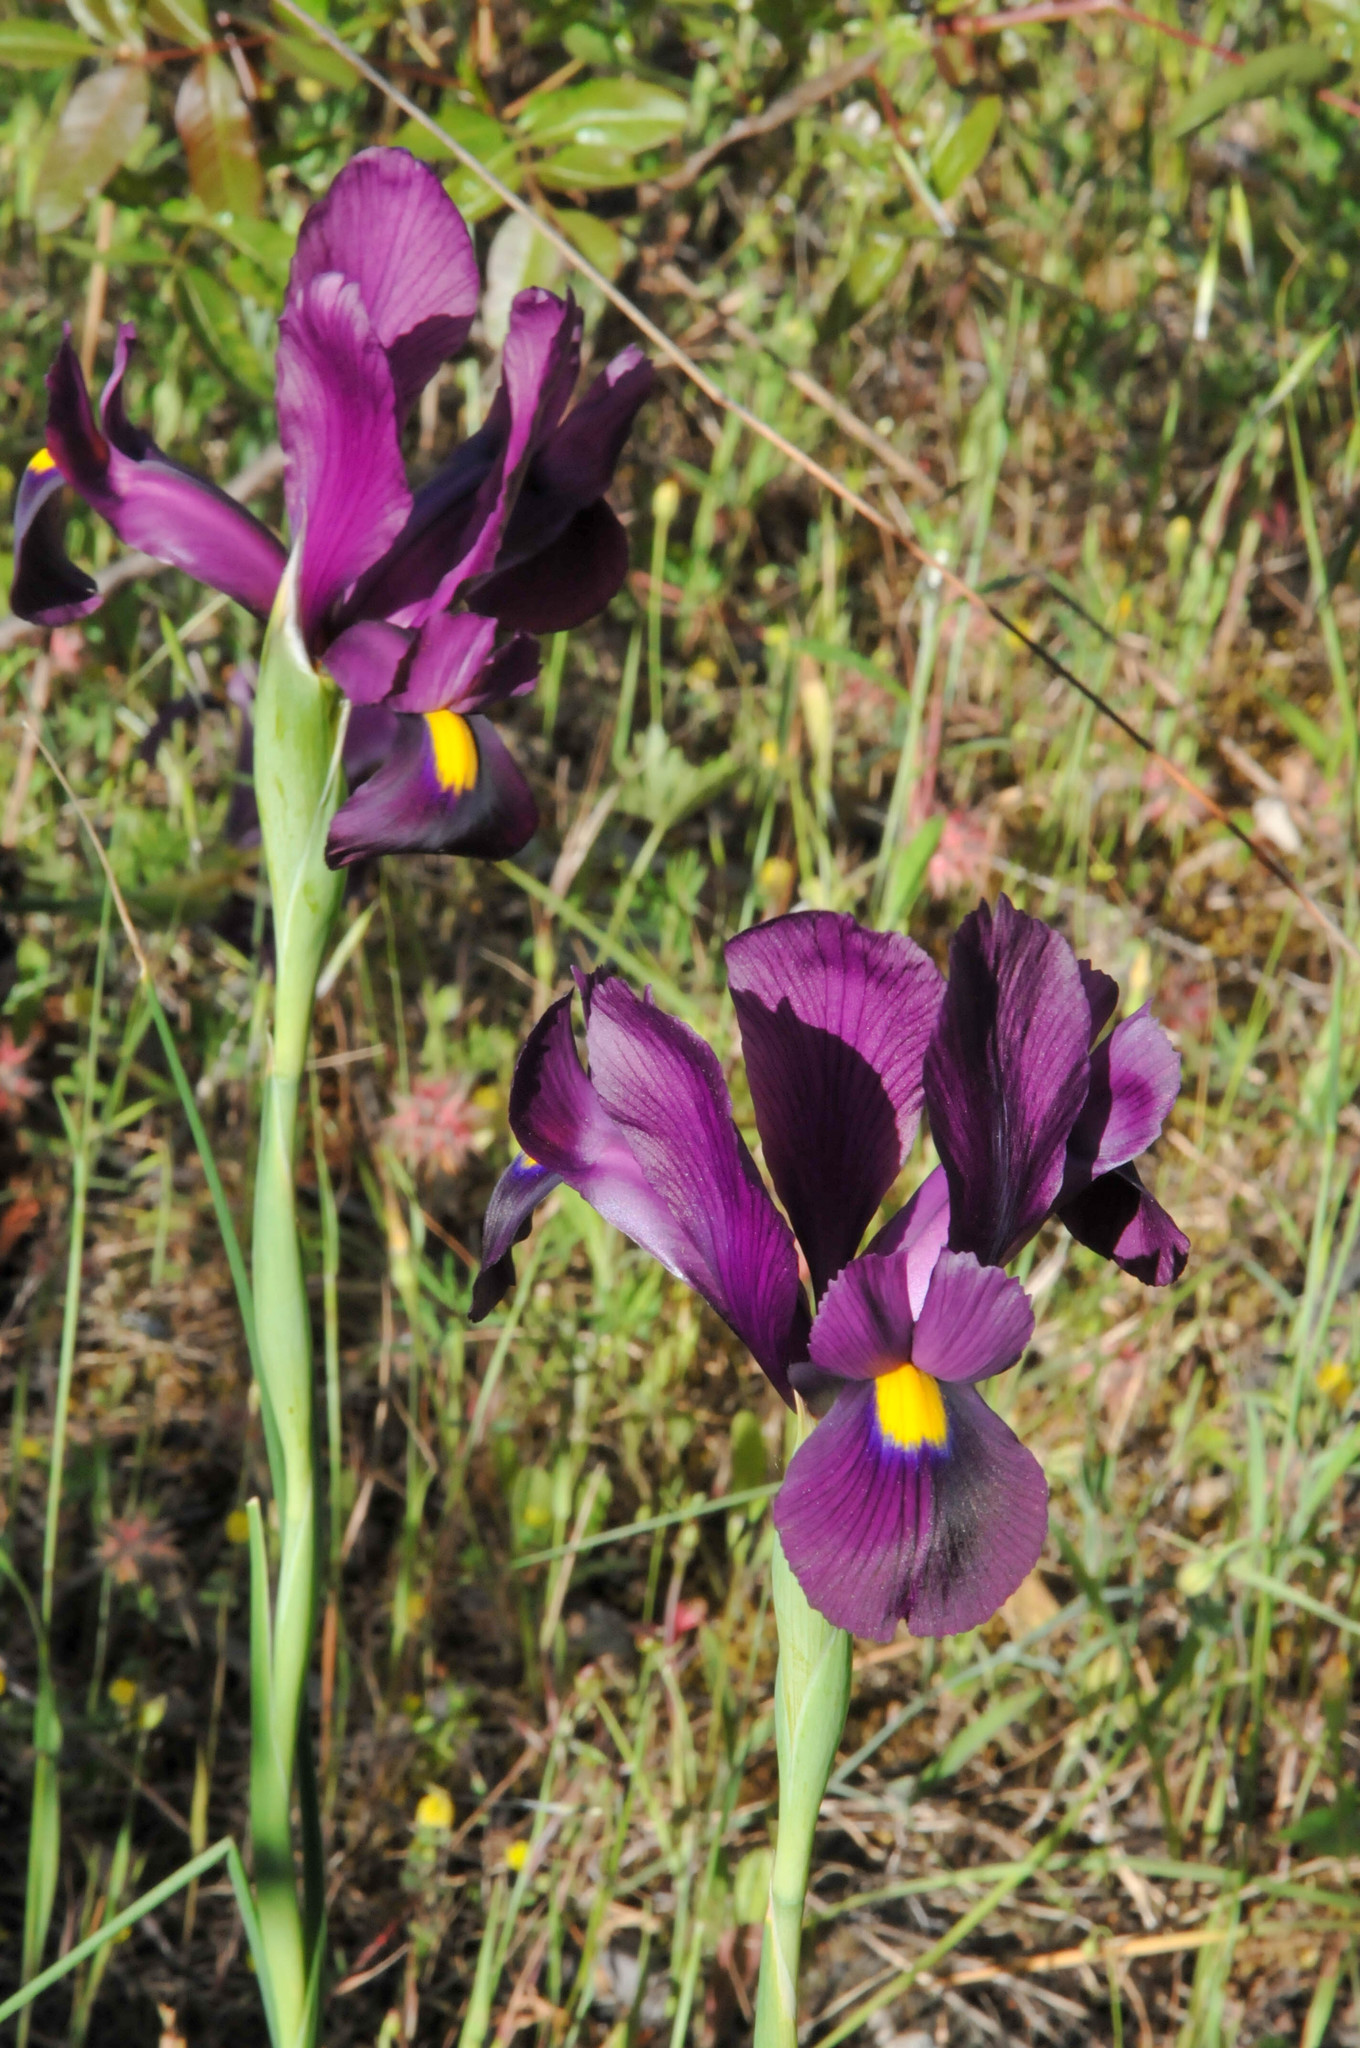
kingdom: Plantae
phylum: Tracheophyta
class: Liliopsida
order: Asparagales
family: Iridaceae
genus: Iris
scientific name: Iris filifolia
